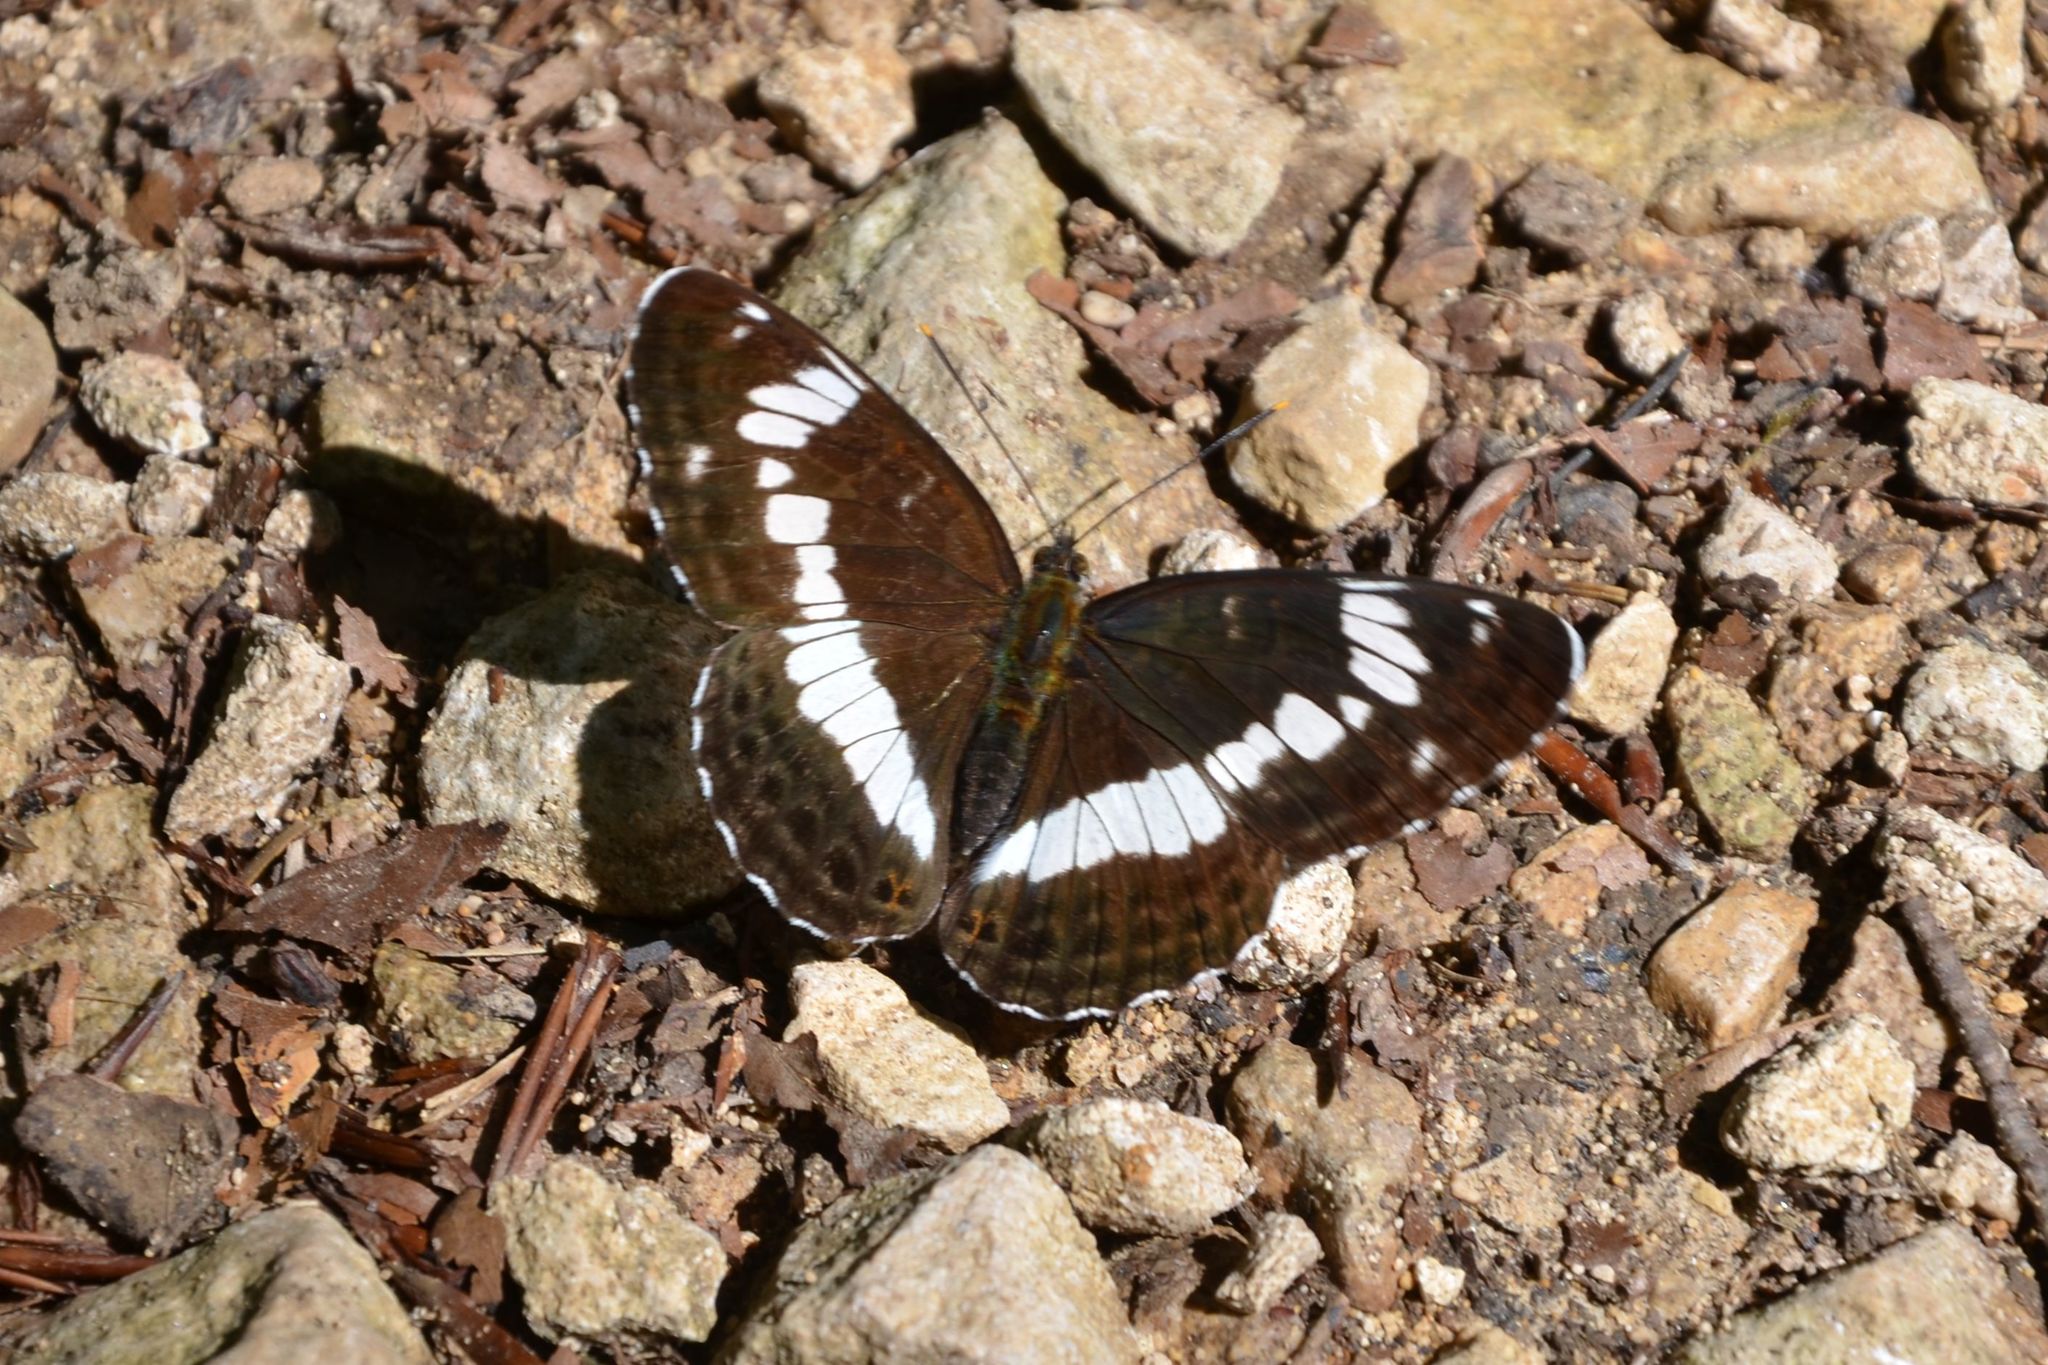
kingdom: Animalia
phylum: Arthropoda
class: Insecta
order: Lepidoptera
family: Nymphalidae
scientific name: Nymphalidae
